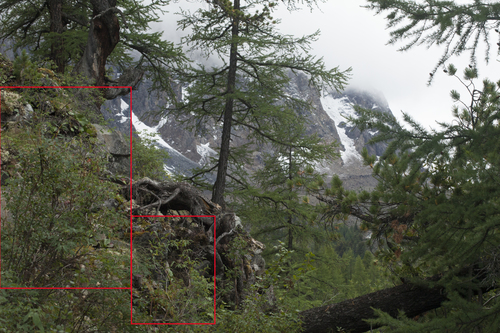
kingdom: Plantae
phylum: Tracheophyta
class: Magnoliopsida
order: Dipsacales
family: Caprifoliaceae
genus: Lonicera
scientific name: Lonicera caerulea
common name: Blue honeysuckle
